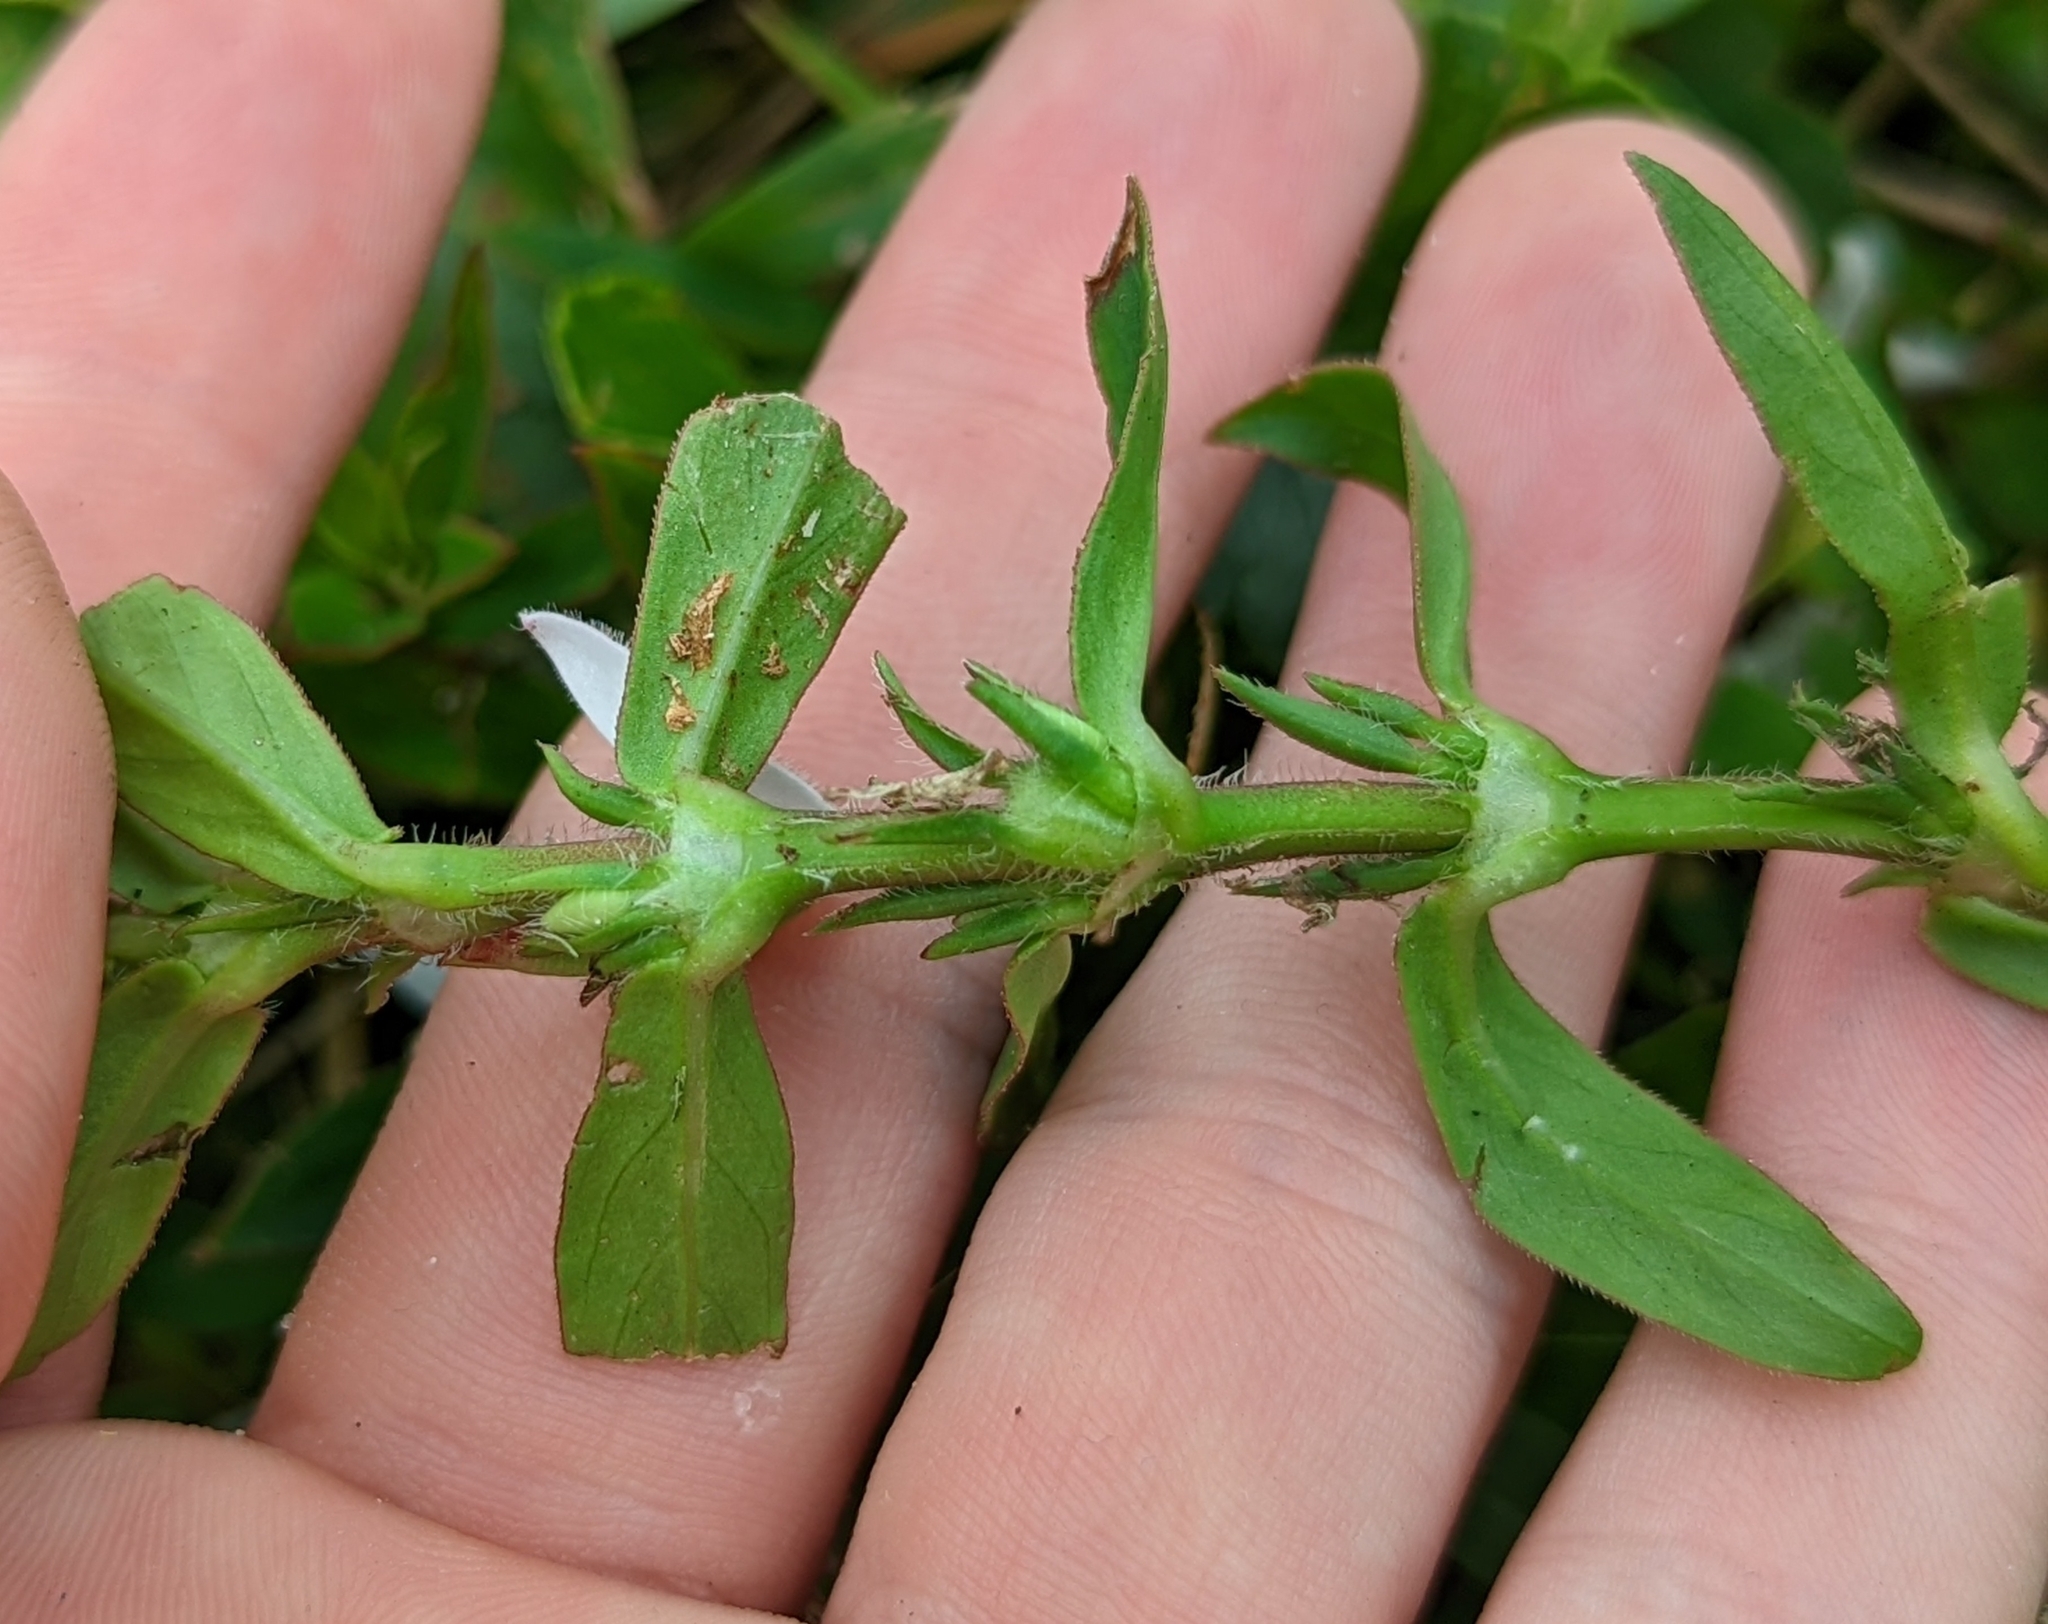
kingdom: Plantae
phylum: Tracheophyta
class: Magnoliopsida
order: Gentianales
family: Rubiaceae
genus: Diodia
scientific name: Diodia virginiana
